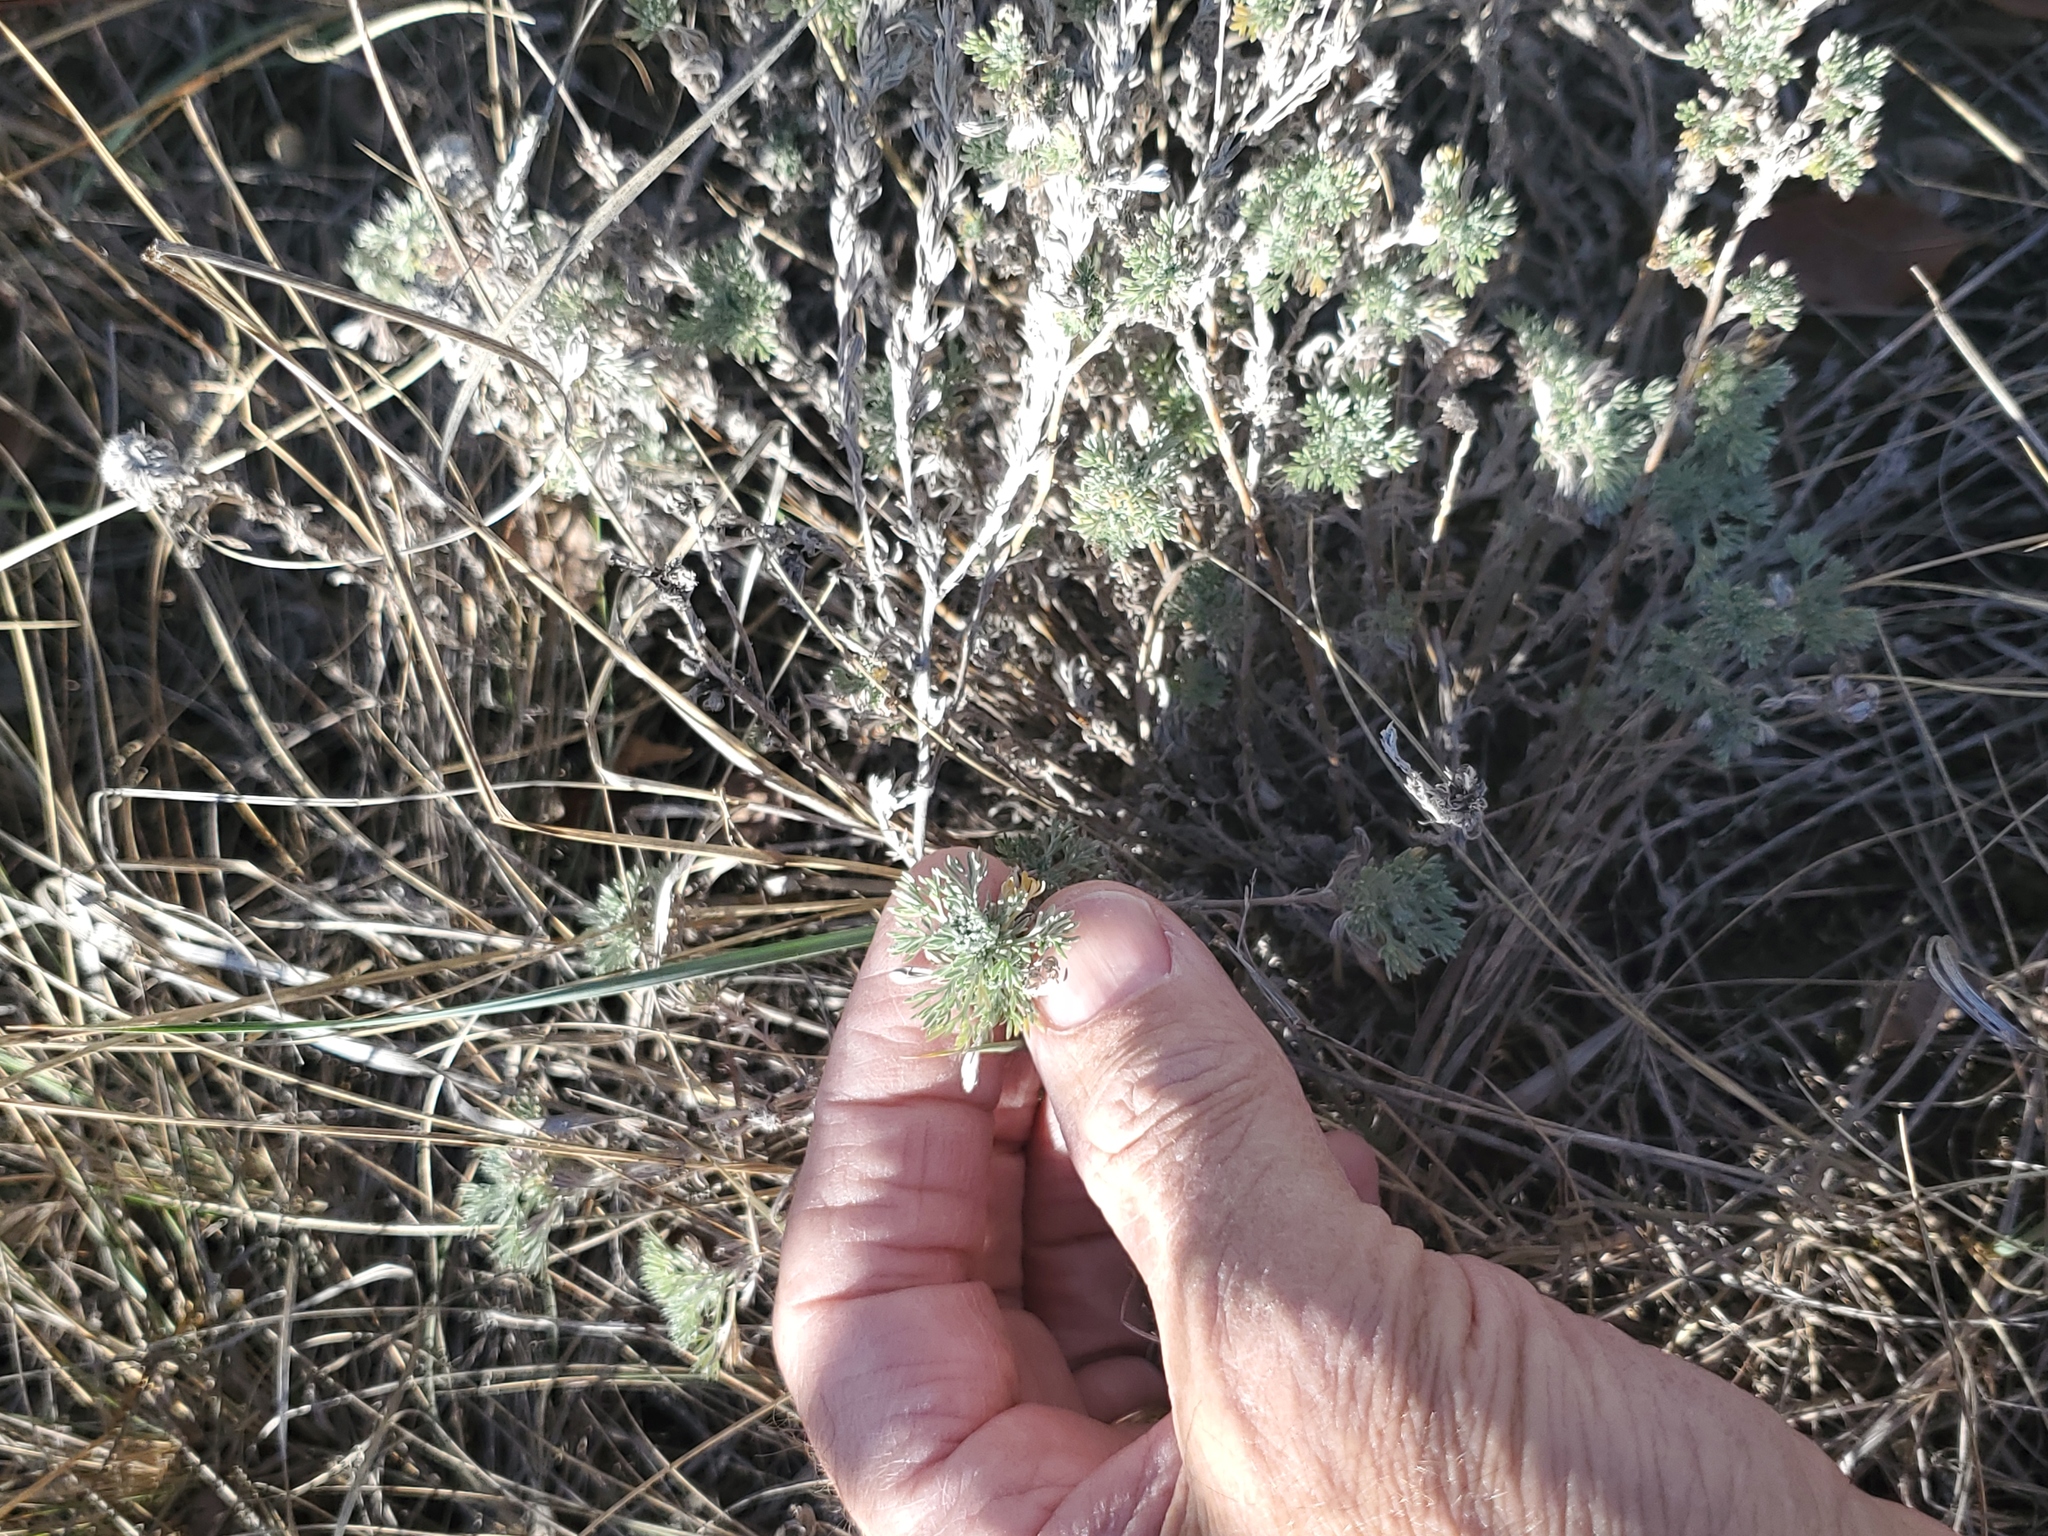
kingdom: Plantae
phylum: Tracheophyta
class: Magnoliopsida
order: Asterales
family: Asteraceae
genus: Artemisia
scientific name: Artemisia frigida
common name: Prairie sagewort
